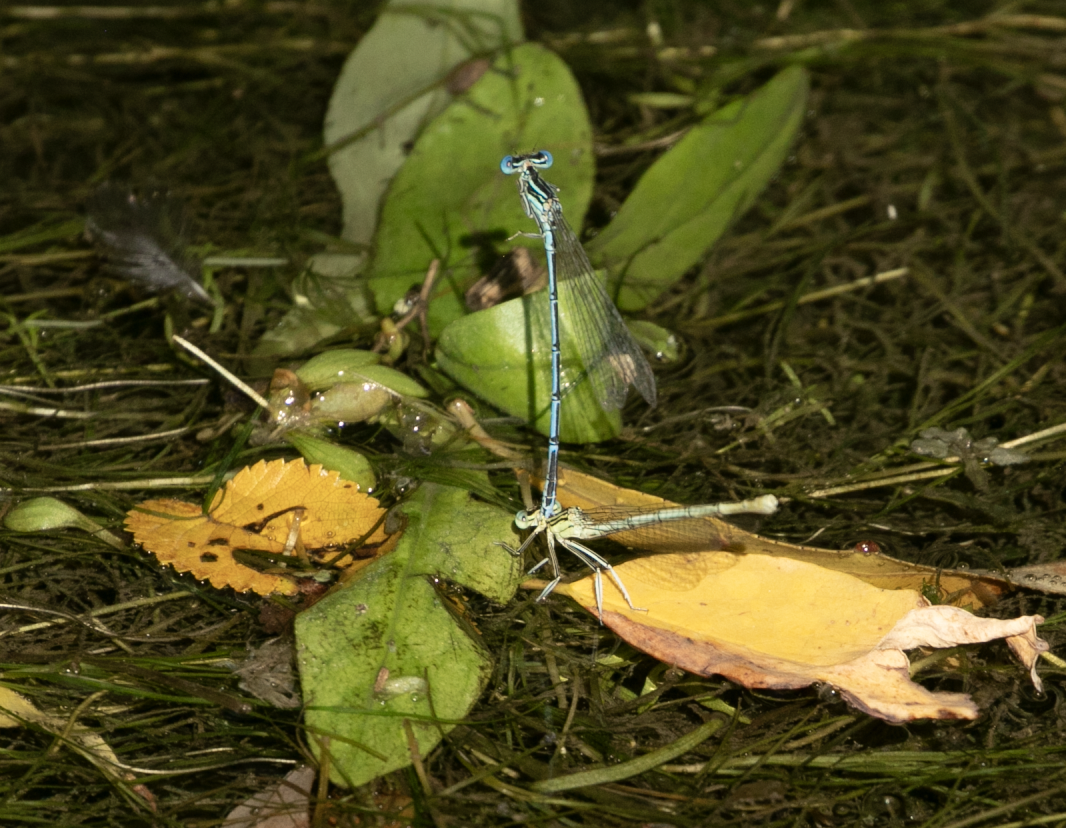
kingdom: Animalia
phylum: Arthropoda
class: Insecta
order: Odonata
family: Platycnemididae
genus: Platycnemis
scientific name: Platycnemis pennipes
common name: White-legged damselfly
